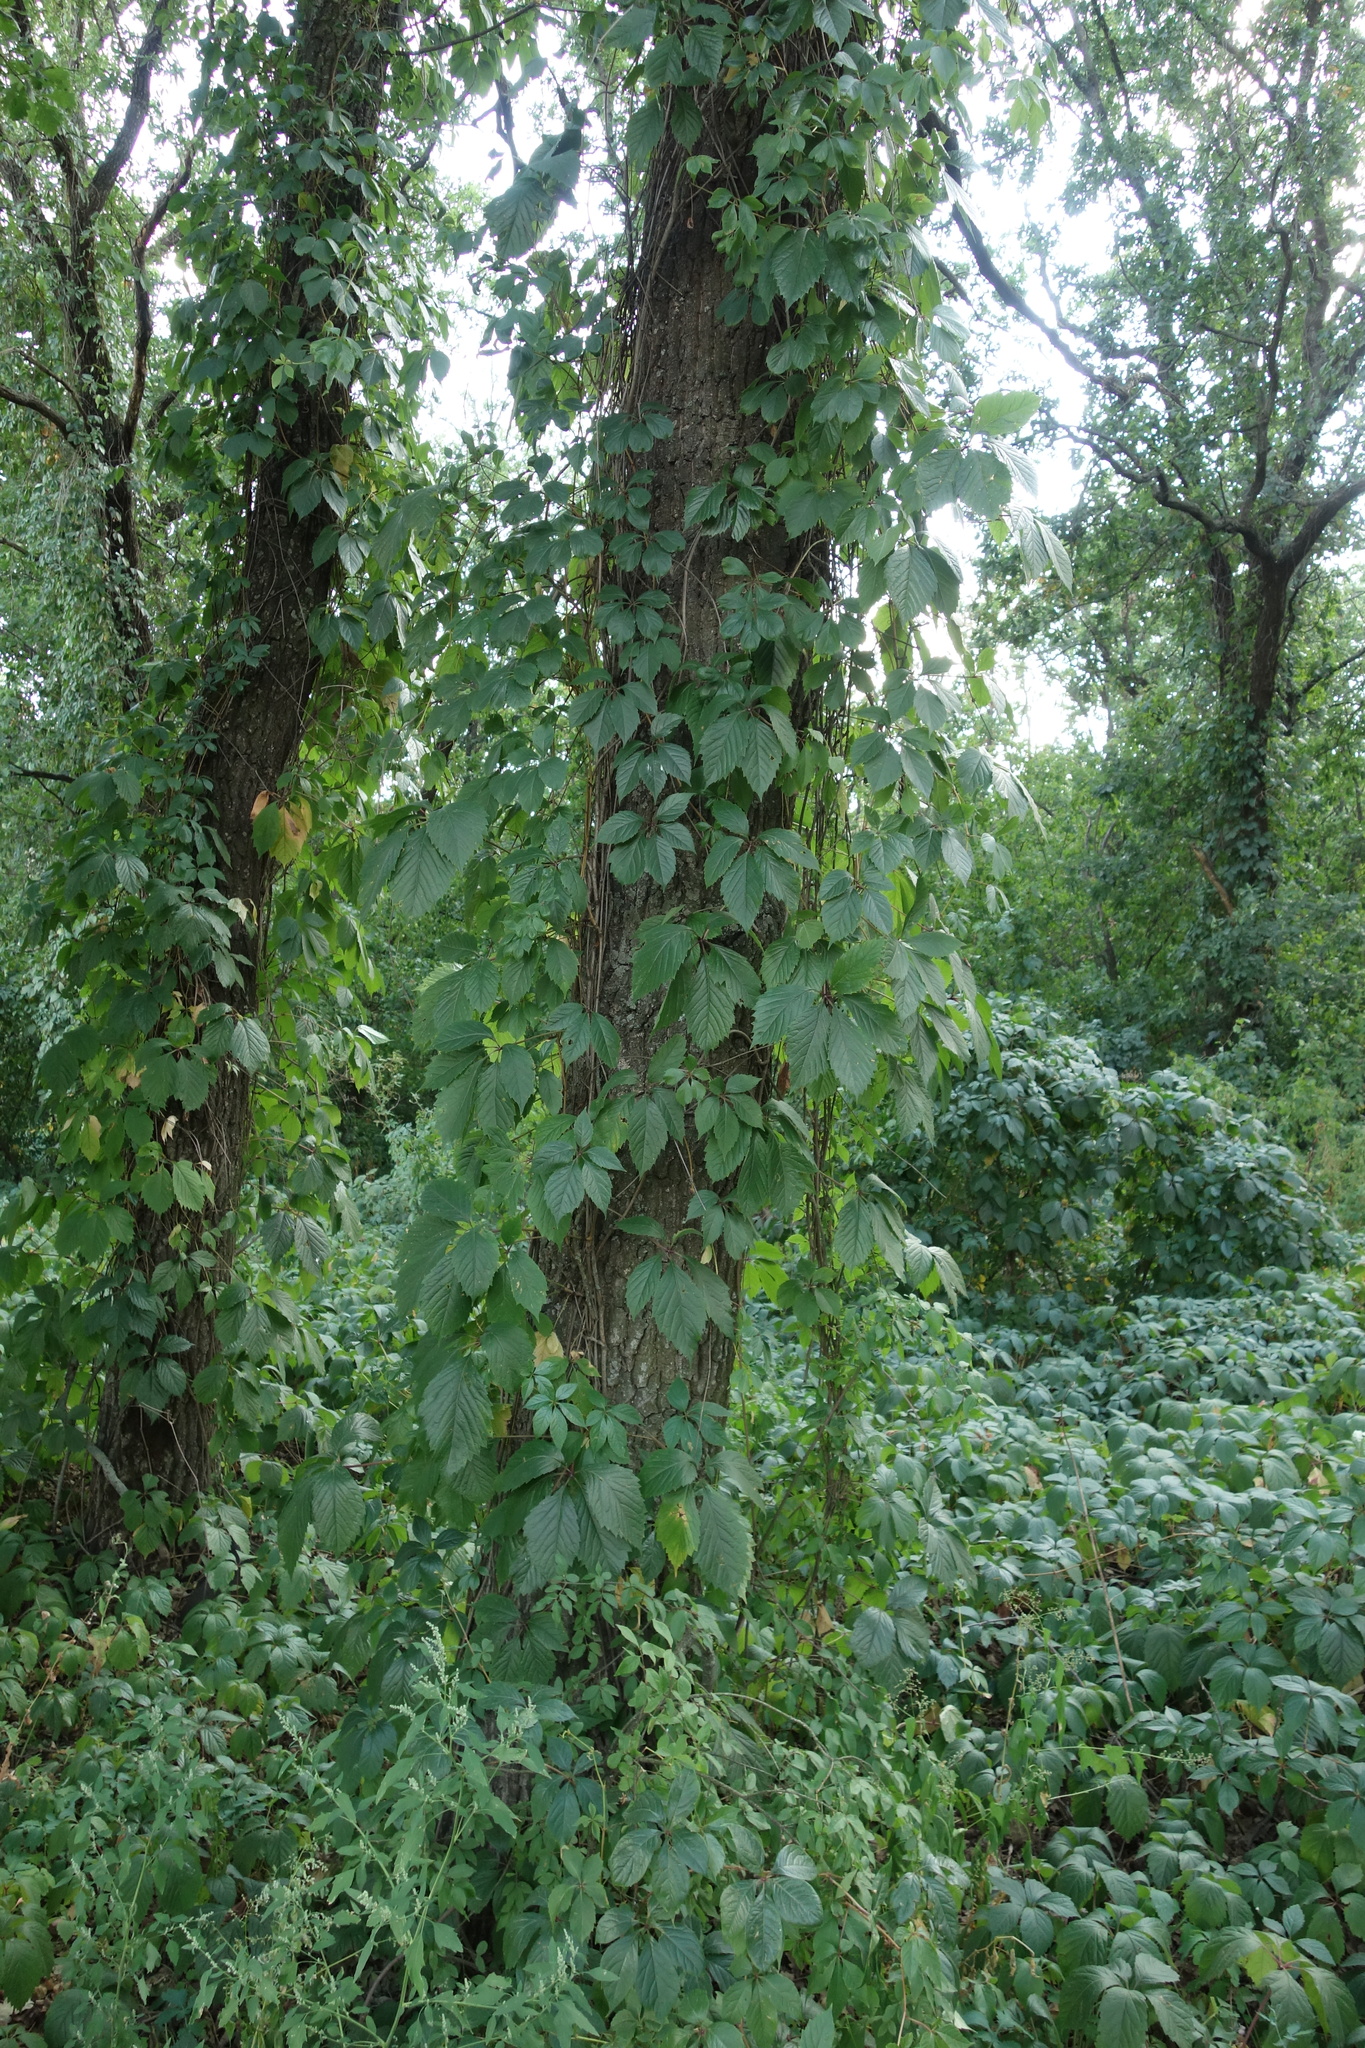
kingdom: Plantae
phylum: Tracheophyta
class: Magnoliopsida
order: Vitales
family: Vitaceae
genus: Parthenocissus
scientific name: Parthenocissus inserta
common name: False virginia-creeper
